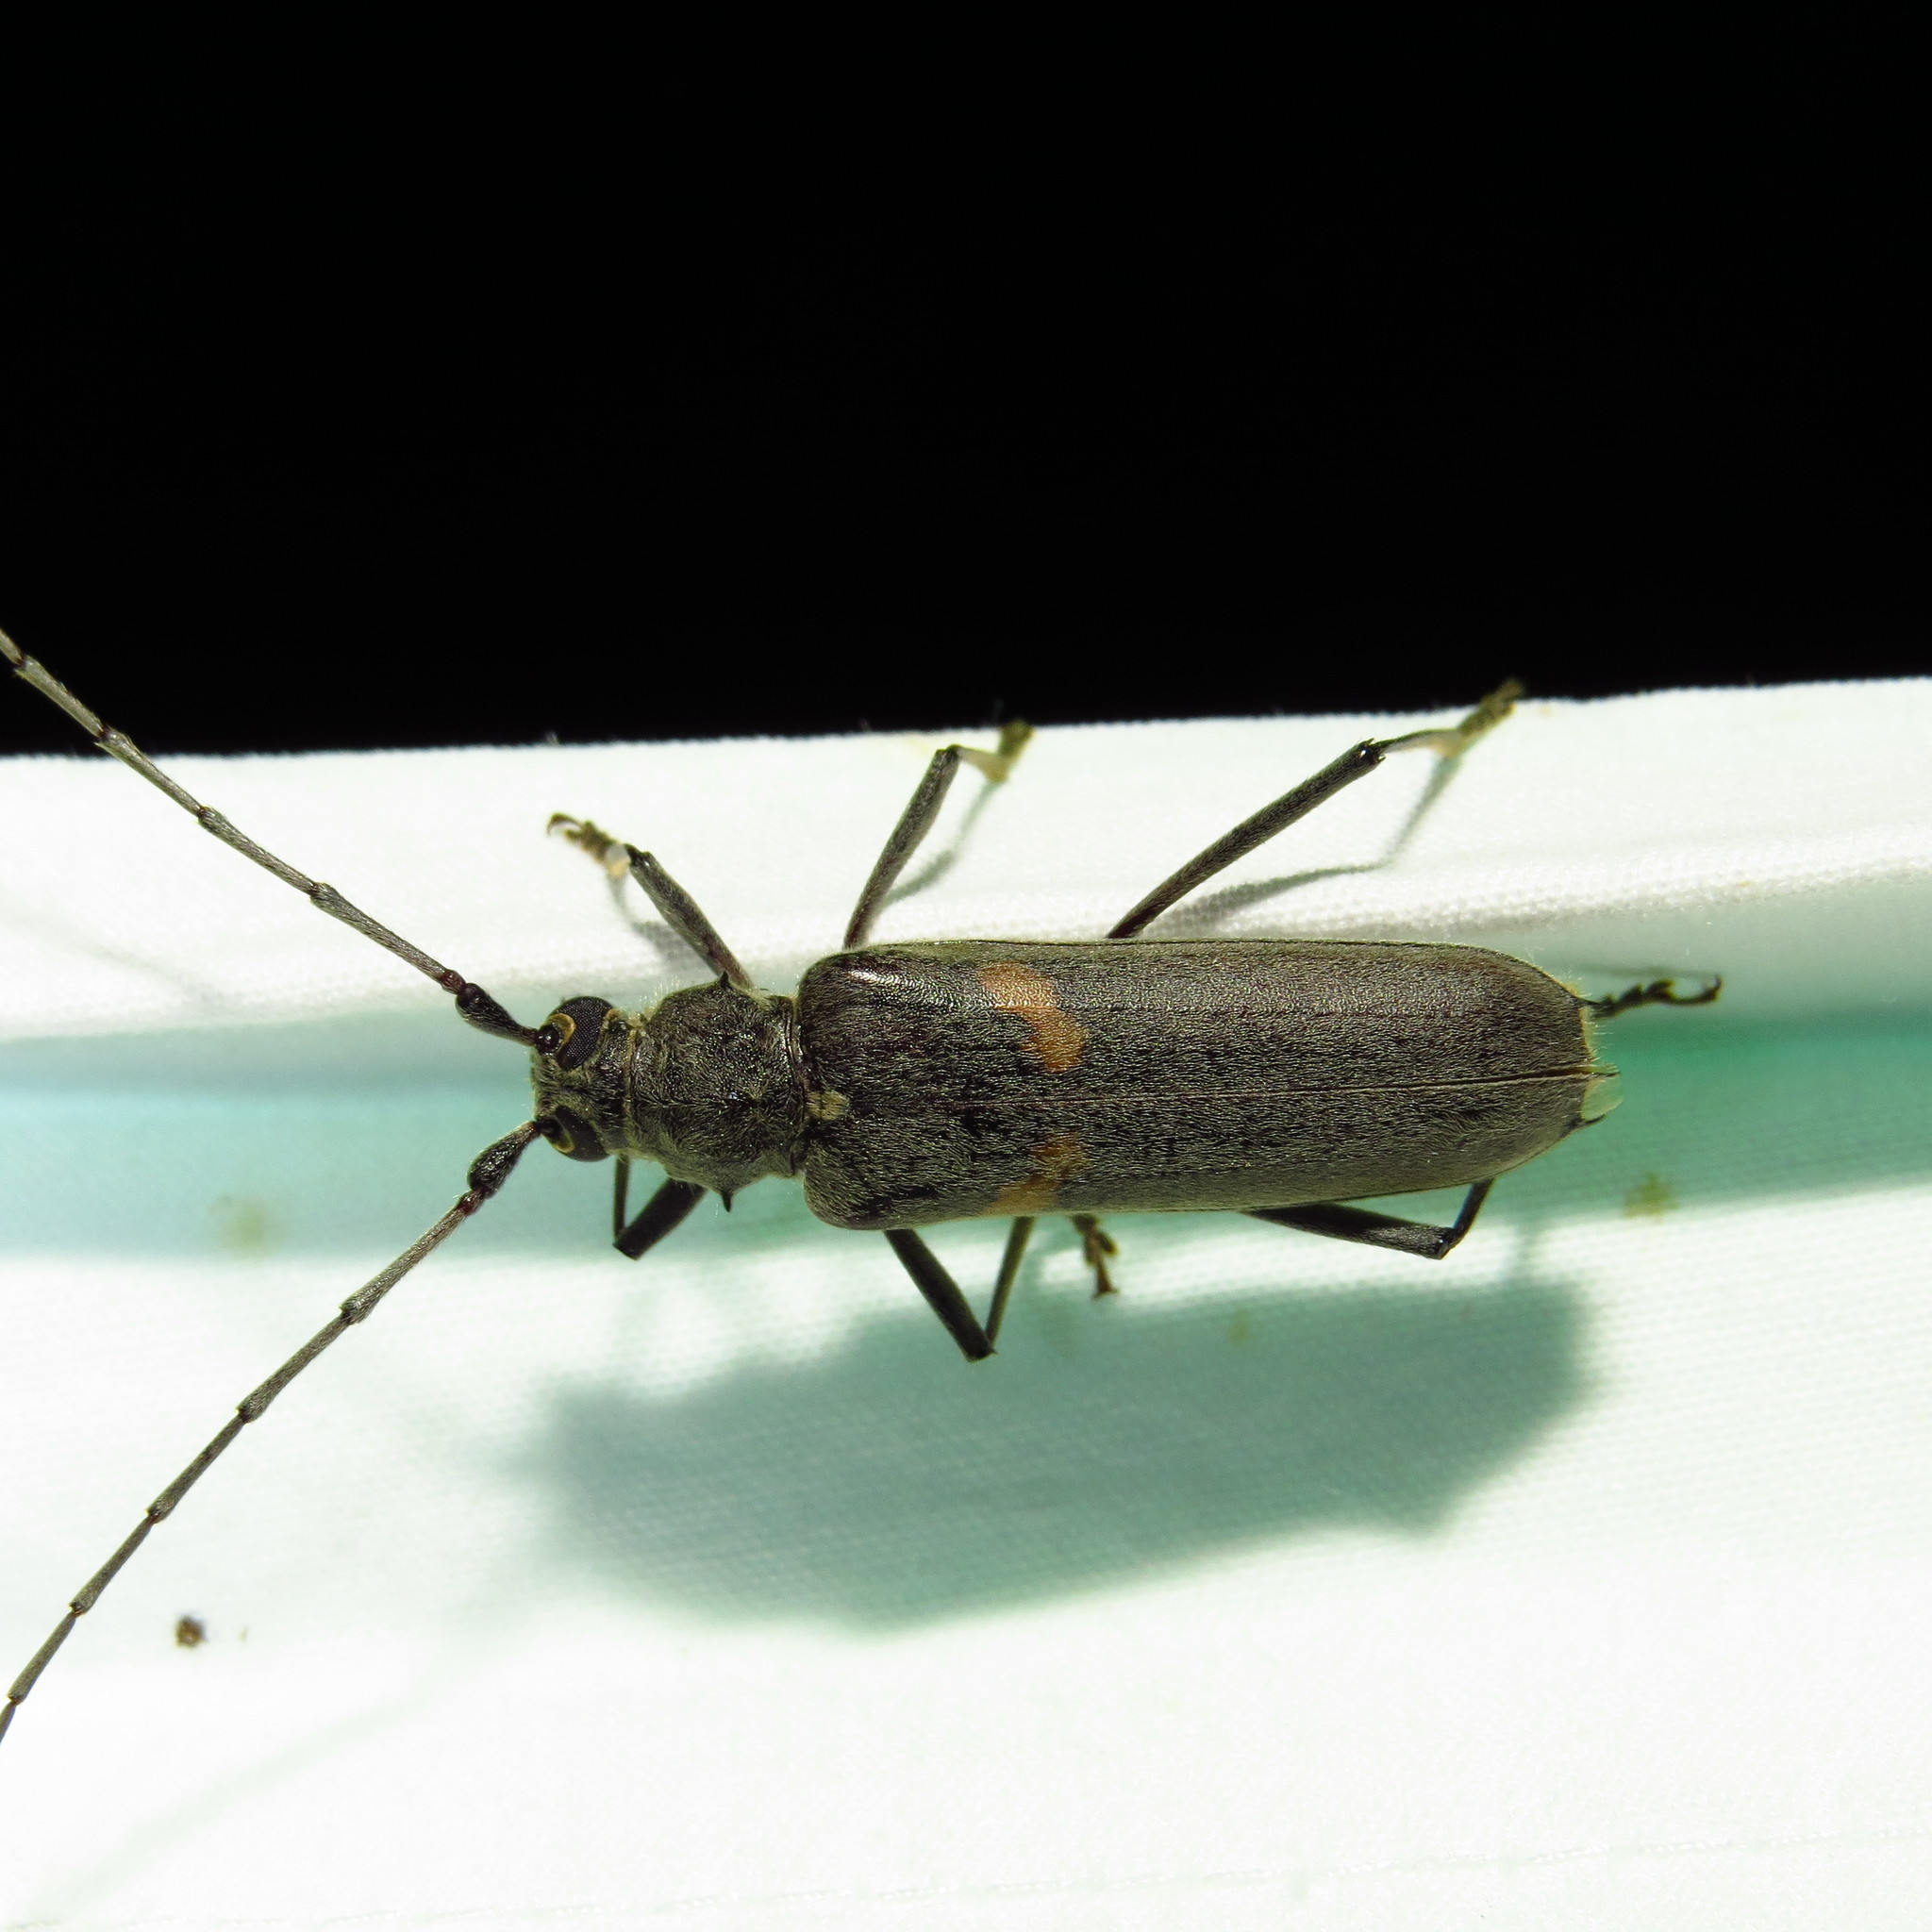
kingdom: Animalia
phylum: Arthropoda
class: Insecta
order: Coleoptera
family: Cerambycidae
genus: Knulliana
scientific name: Knulliana cincta
